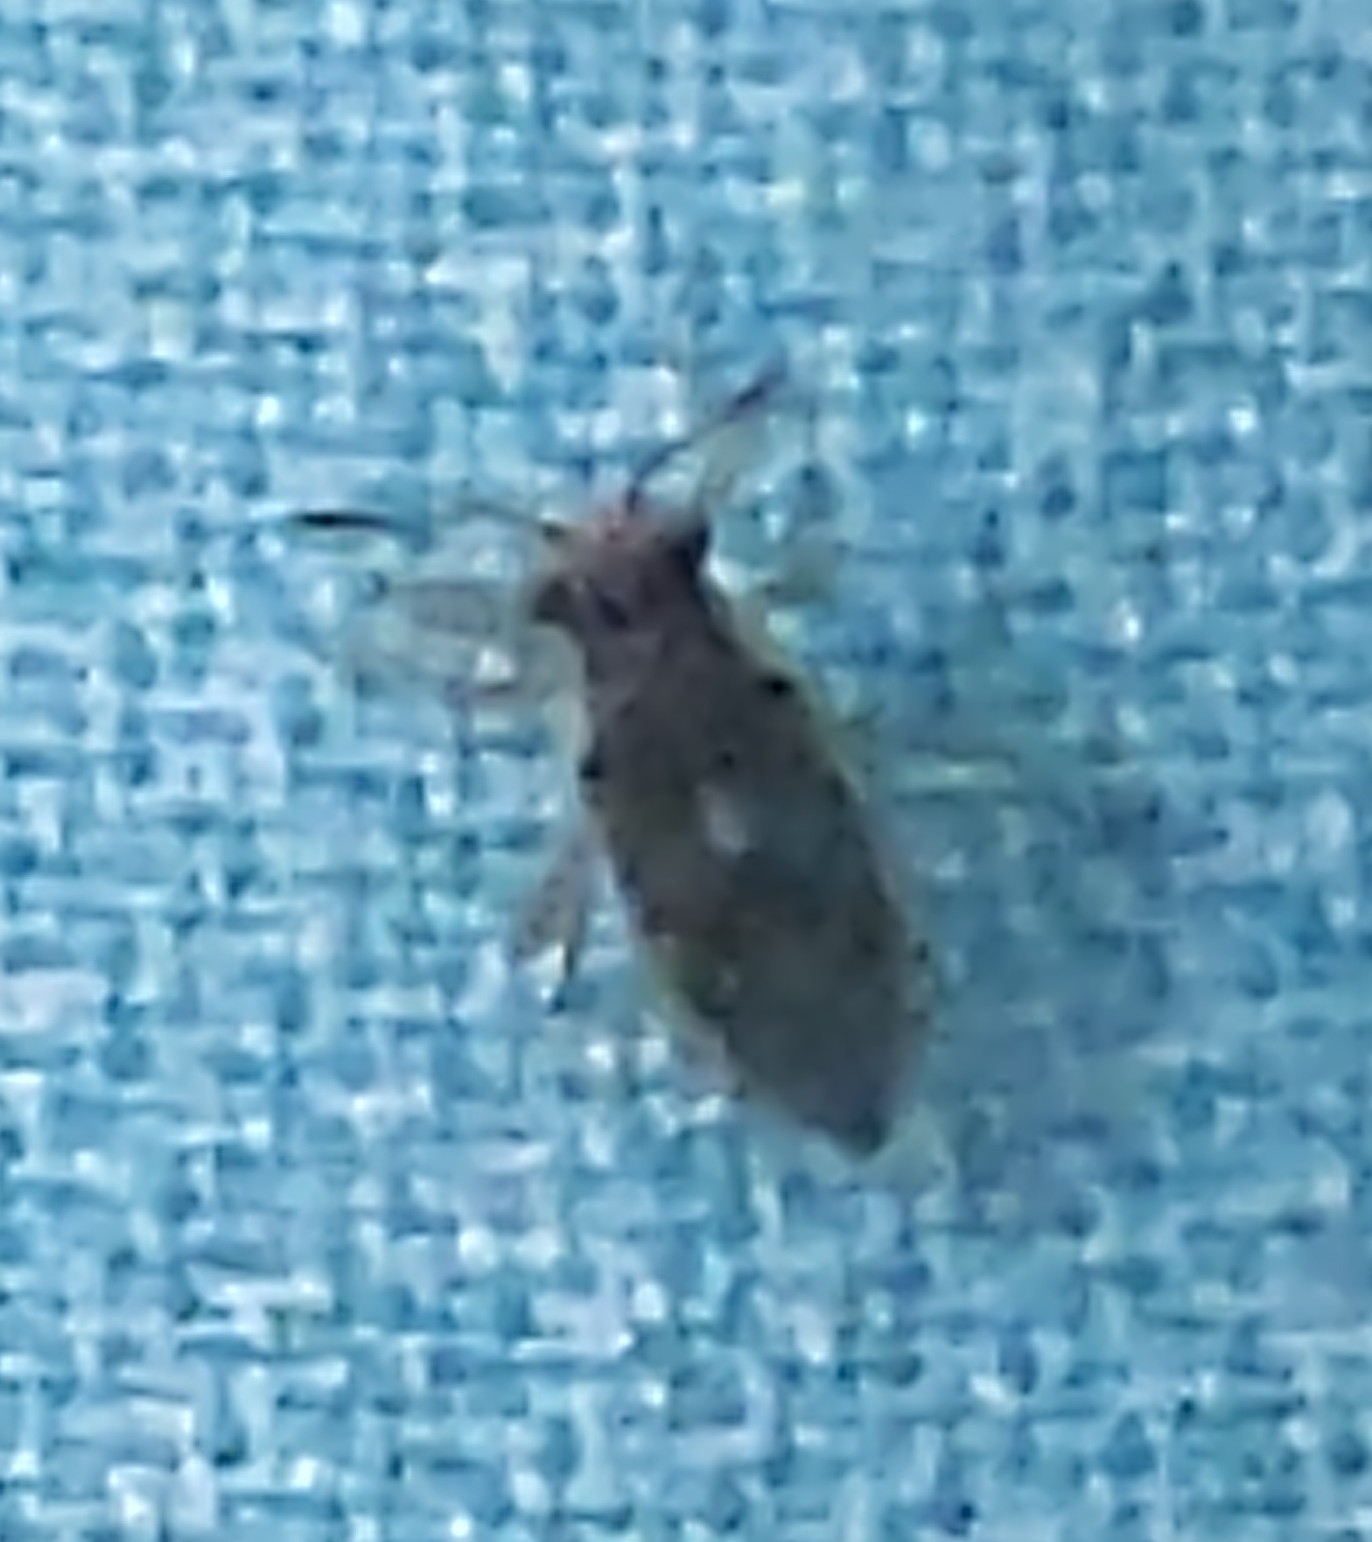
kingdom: Animalia
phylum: Arthropoda
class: Insecta
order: Hemiptera
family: Rhopalidae
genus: Brachycarenus
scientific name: Brachycarenus tigrinus
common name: Scentless plant bug
